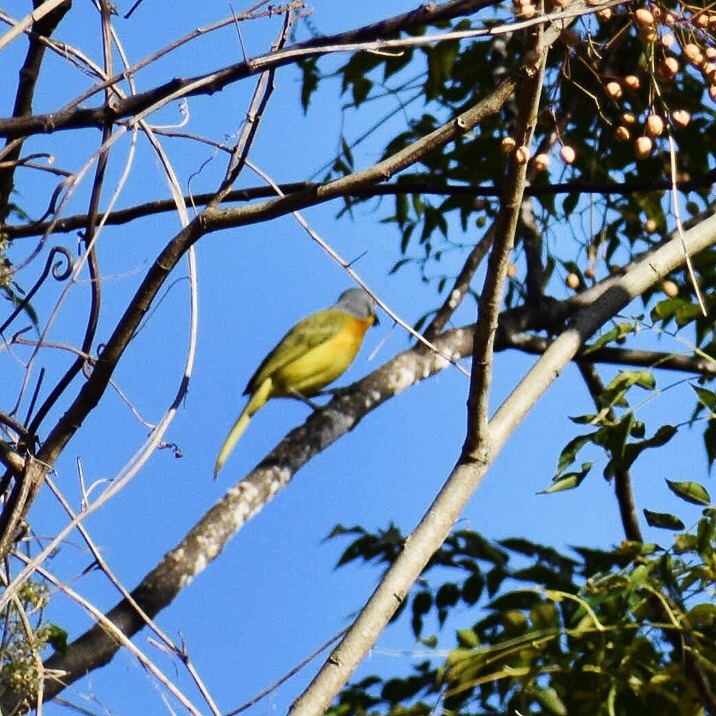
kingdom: Animalia
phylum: Chordata
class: Aves
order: Passeriformes
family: Malaconotidae
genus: Malaconotus
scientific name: Malaconotus blanchoti
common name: Grey-headed bushshrike
